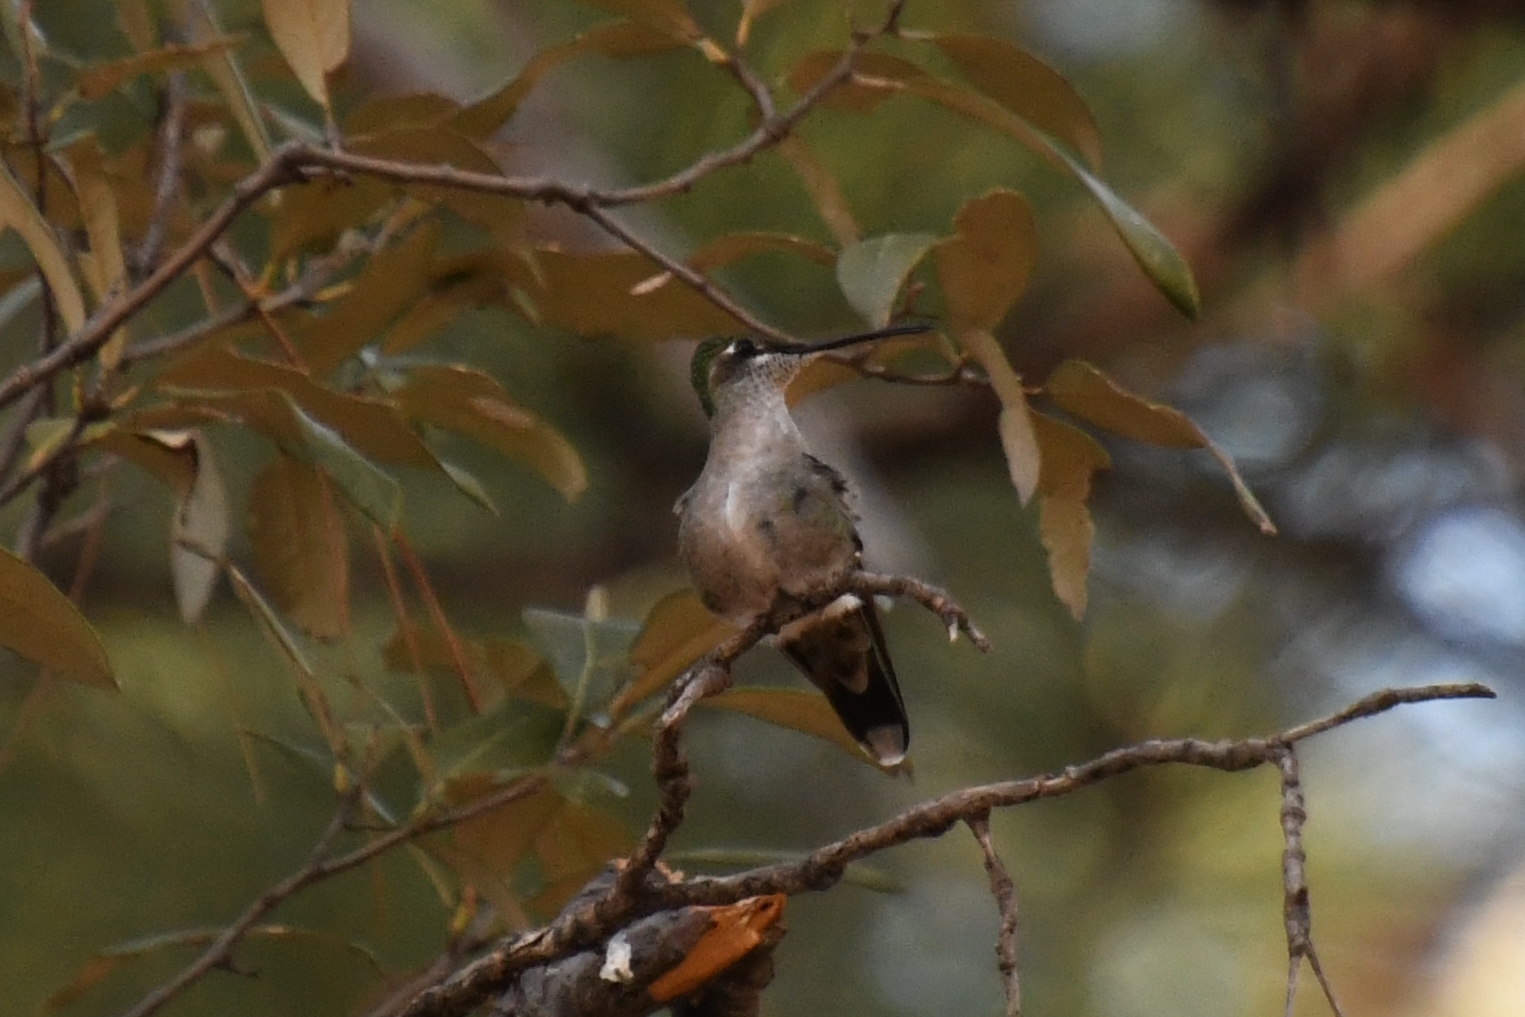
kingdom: Animalia
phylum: Chordata
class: Aves
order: Apodiformes
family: Trochilidae
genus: Eugenes
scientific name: Eugenes fulgens
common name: Magnificent hummingbird
